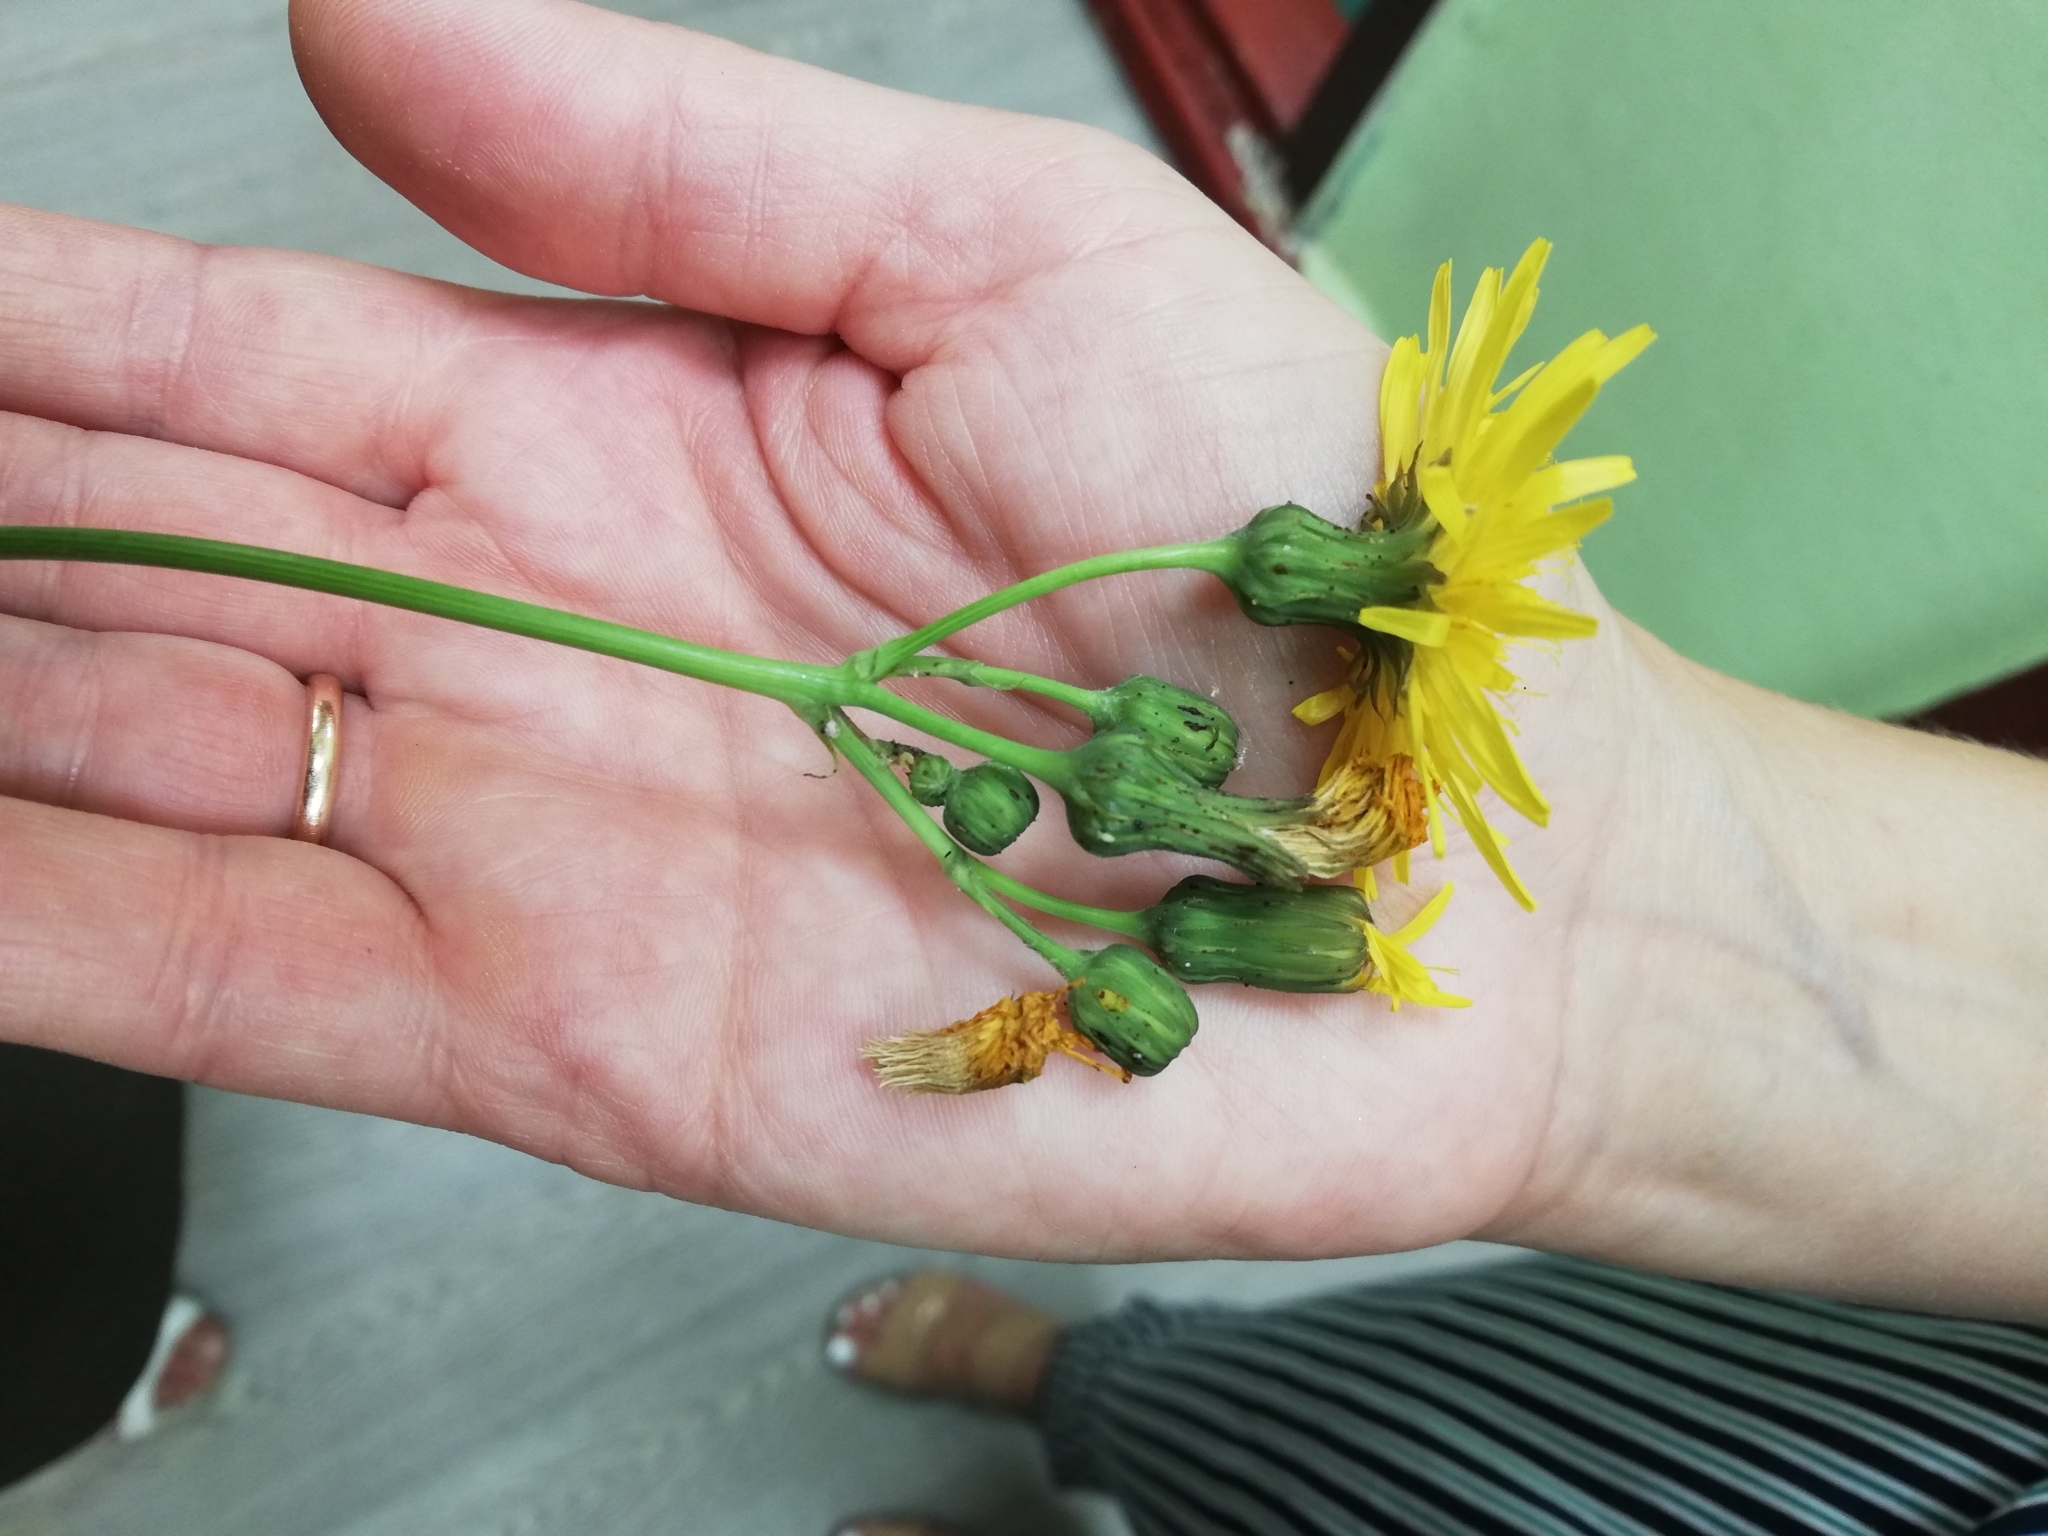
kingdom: Plantae
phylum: Tracheophyta
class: Magnoliopsida
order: Asterales
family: Asteraceae
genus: Sonchus
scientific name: Sonchus arvensis
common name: Perennial sow-thistle
